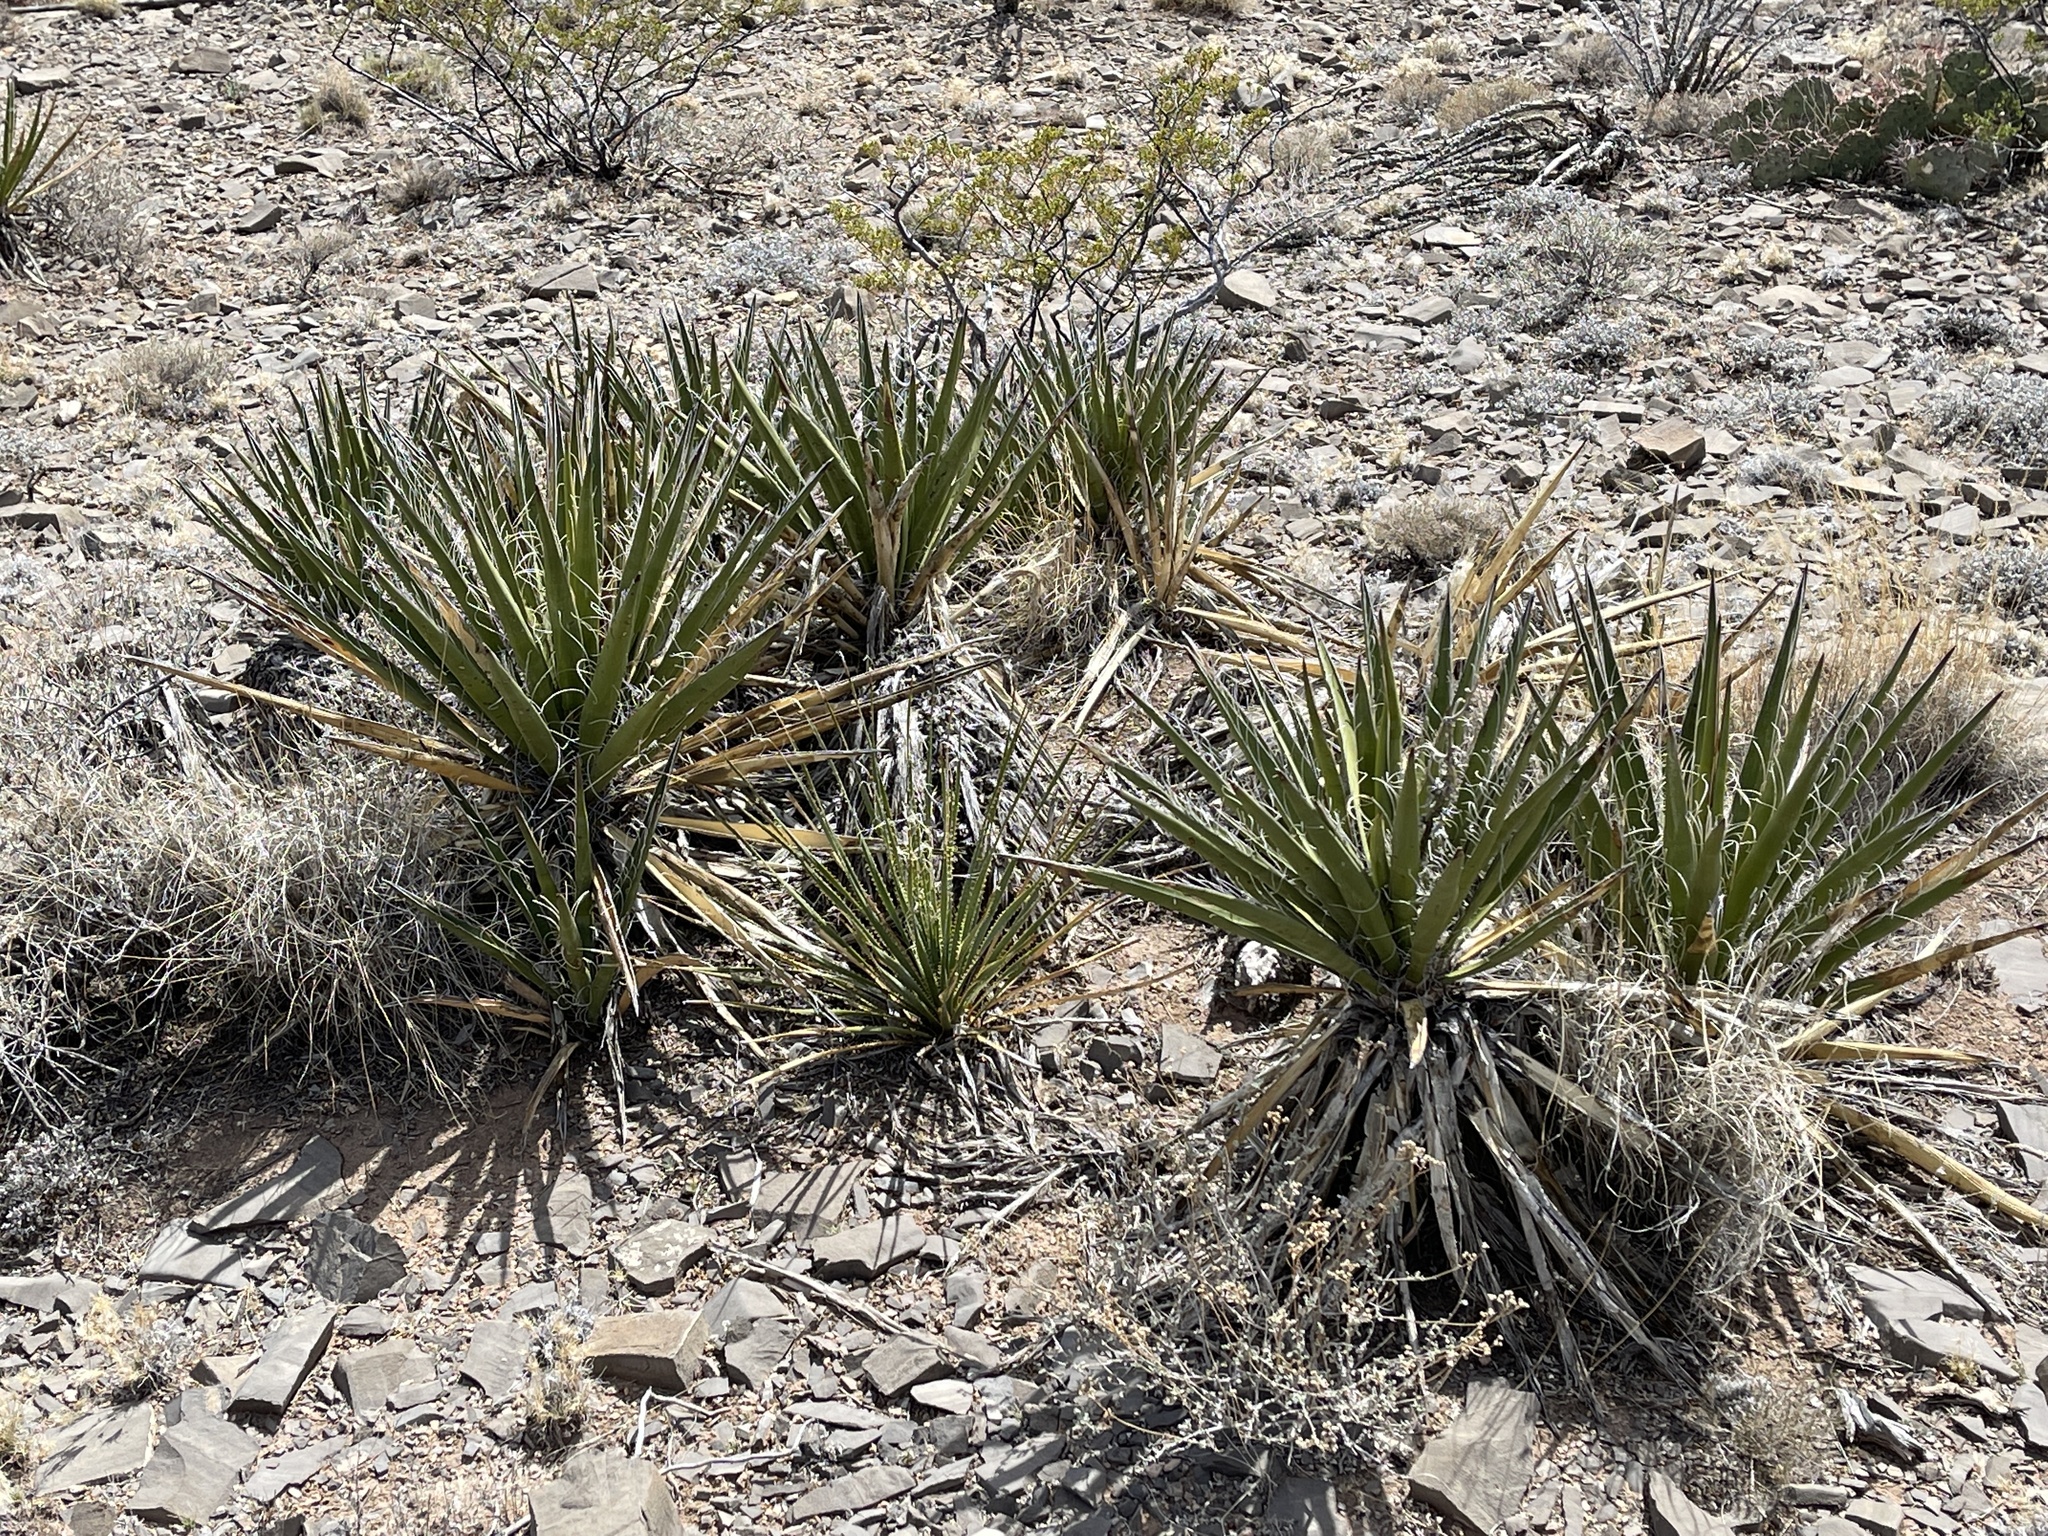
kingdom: Plantae
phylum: Tracheophyta
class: Liliopsida
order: Asparagales
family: Asparagaceae
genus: Yucca
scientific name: Yucca baccata
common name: Banana yucca
